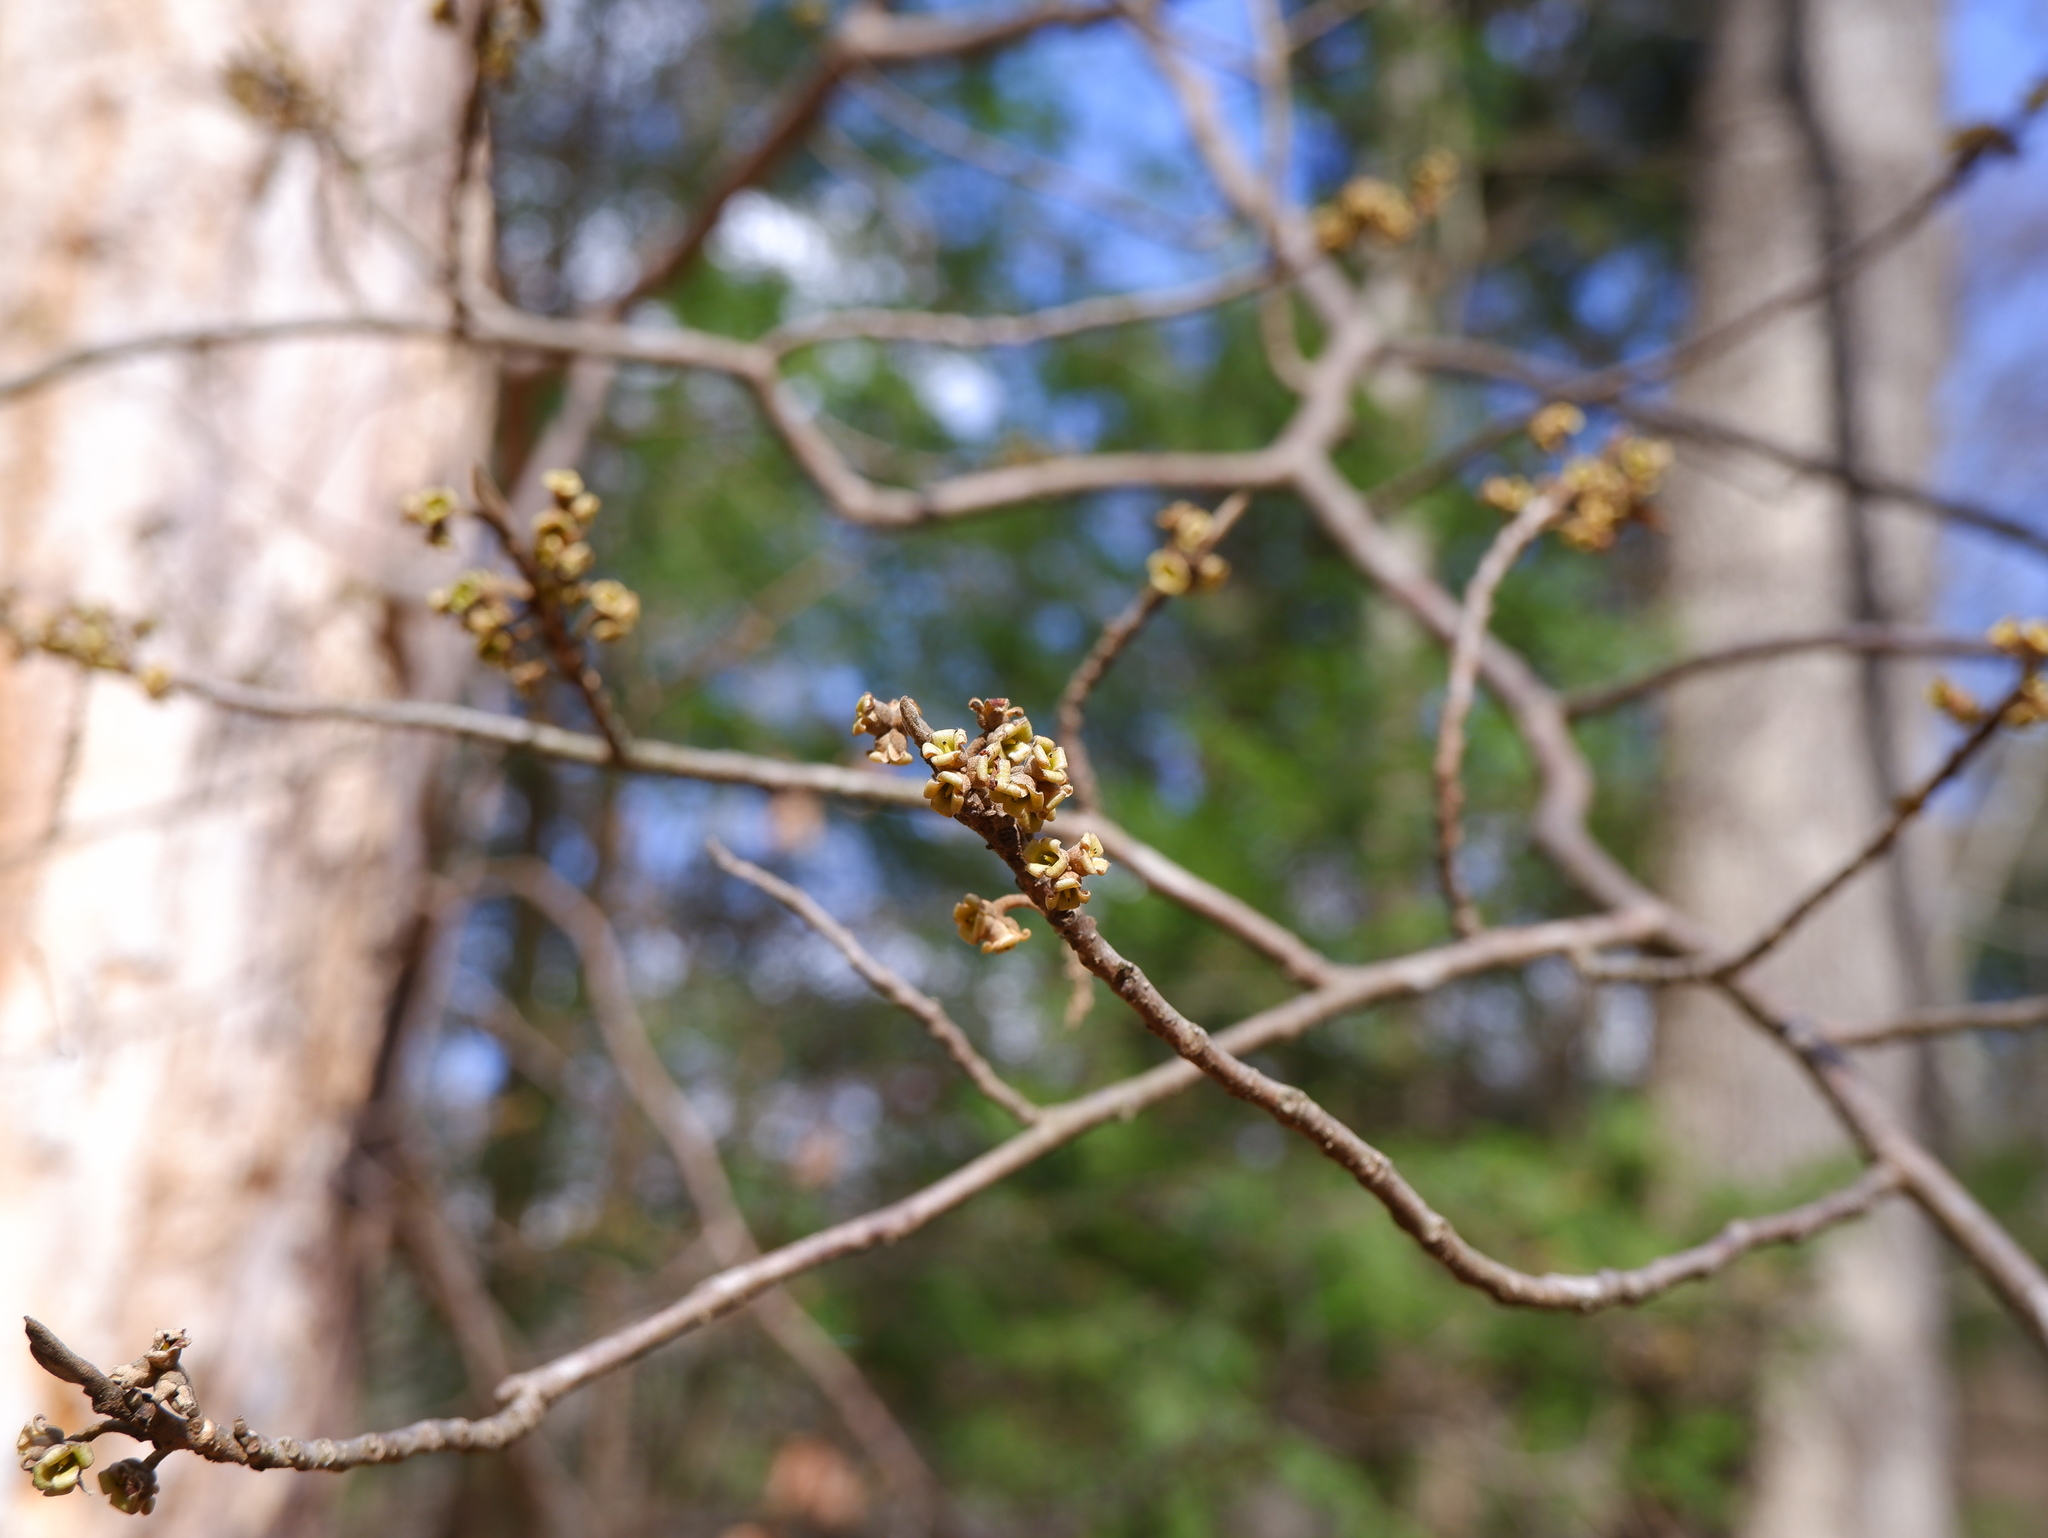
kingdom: Plantae
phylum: Tracheophyta
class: Magnoliopsida
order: Saxifragales
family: Hamamelidaceae
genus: Hamamelis
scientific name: Hamamelis virginiana
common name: Witch-hazel
